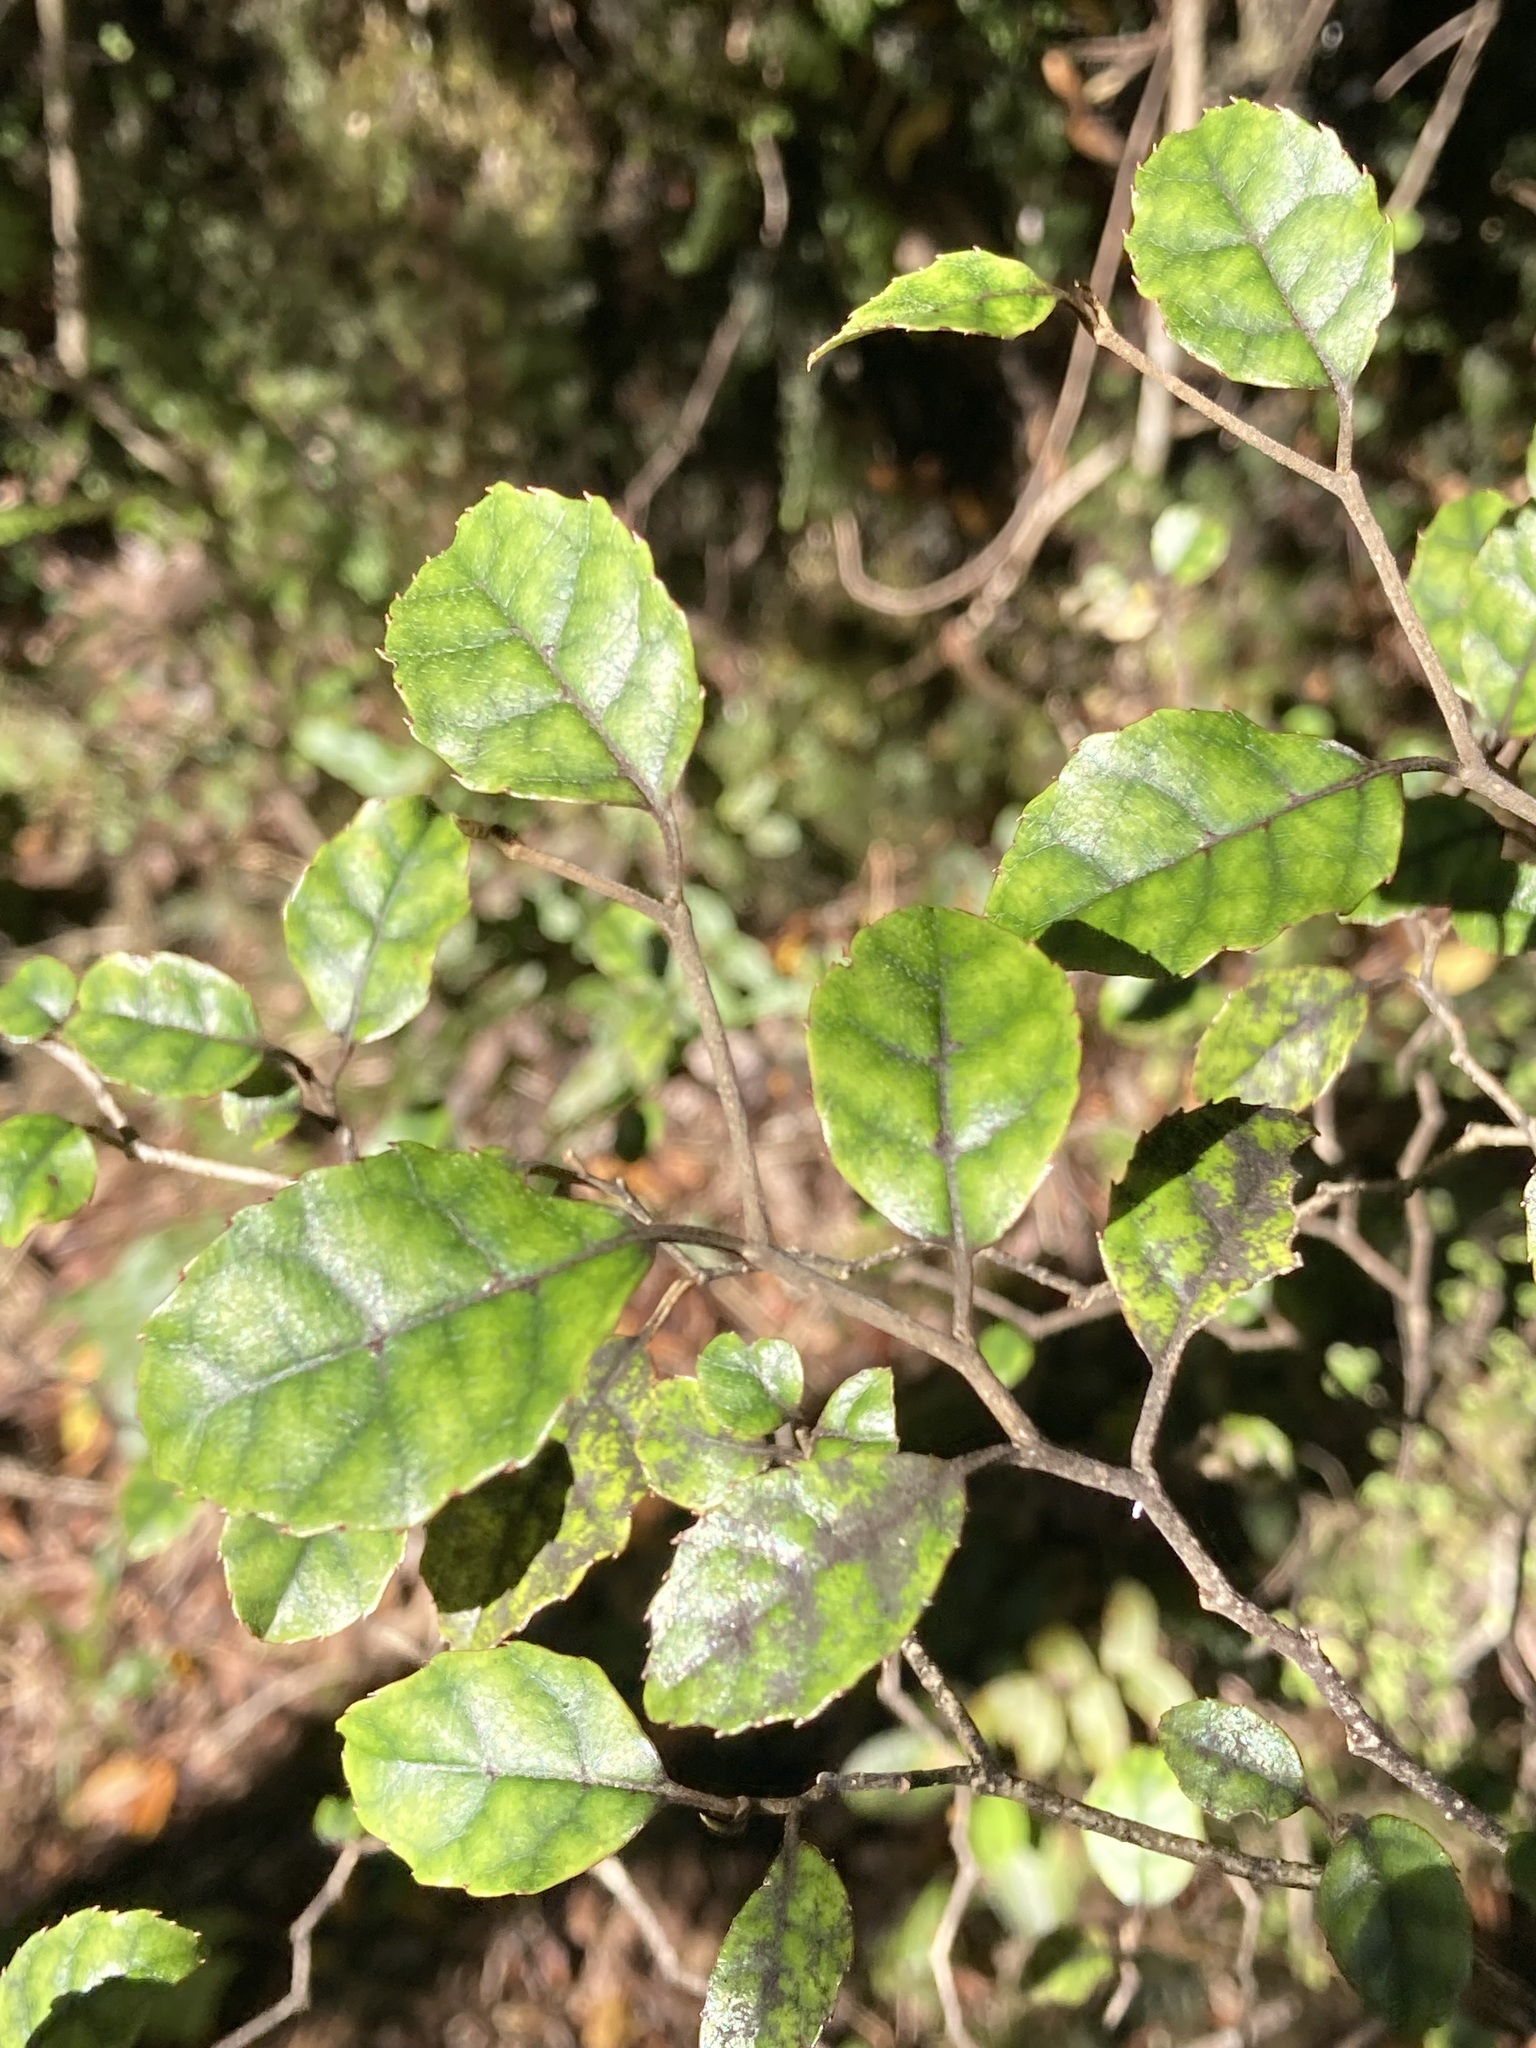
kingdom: Plantae
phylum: Tracheophyta
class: Magnoliopsida
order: Asterales
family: Rousseaceae
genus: Carpodetus
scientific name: Carpodetus serratus
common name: White mapau
